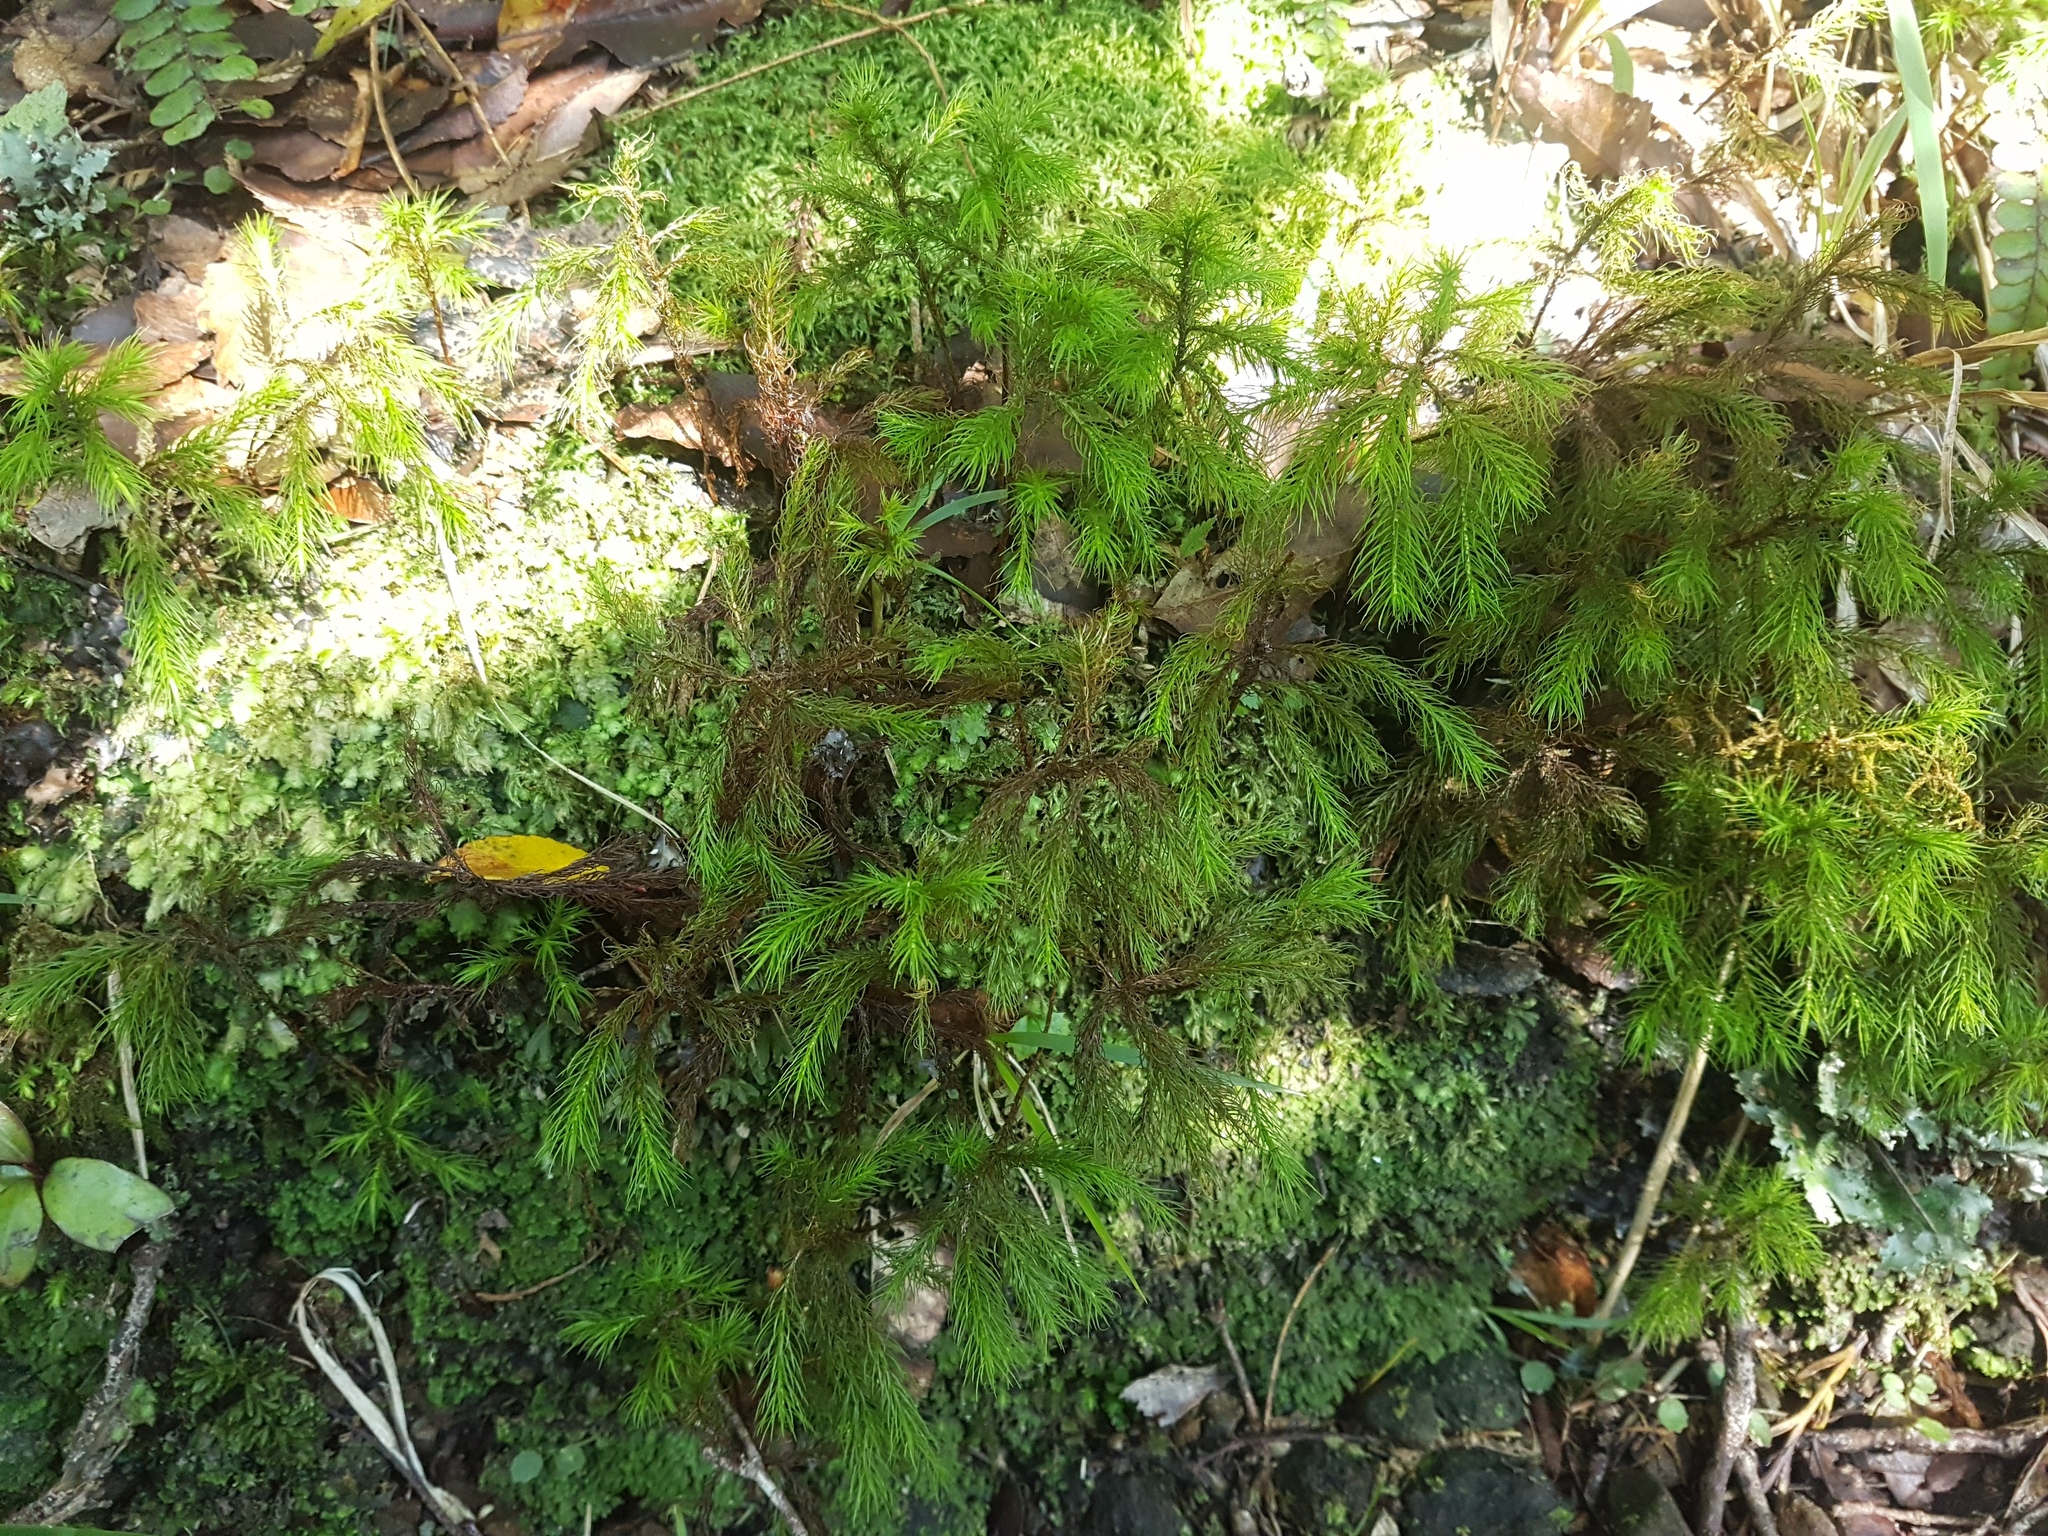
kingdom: Plantae
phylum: Bryophyta
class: Polytrichopsida
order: Polytrichales
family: Polytrichaceae
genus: Dendroligotrichum
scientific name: Dendroligotrichum tongariroense
